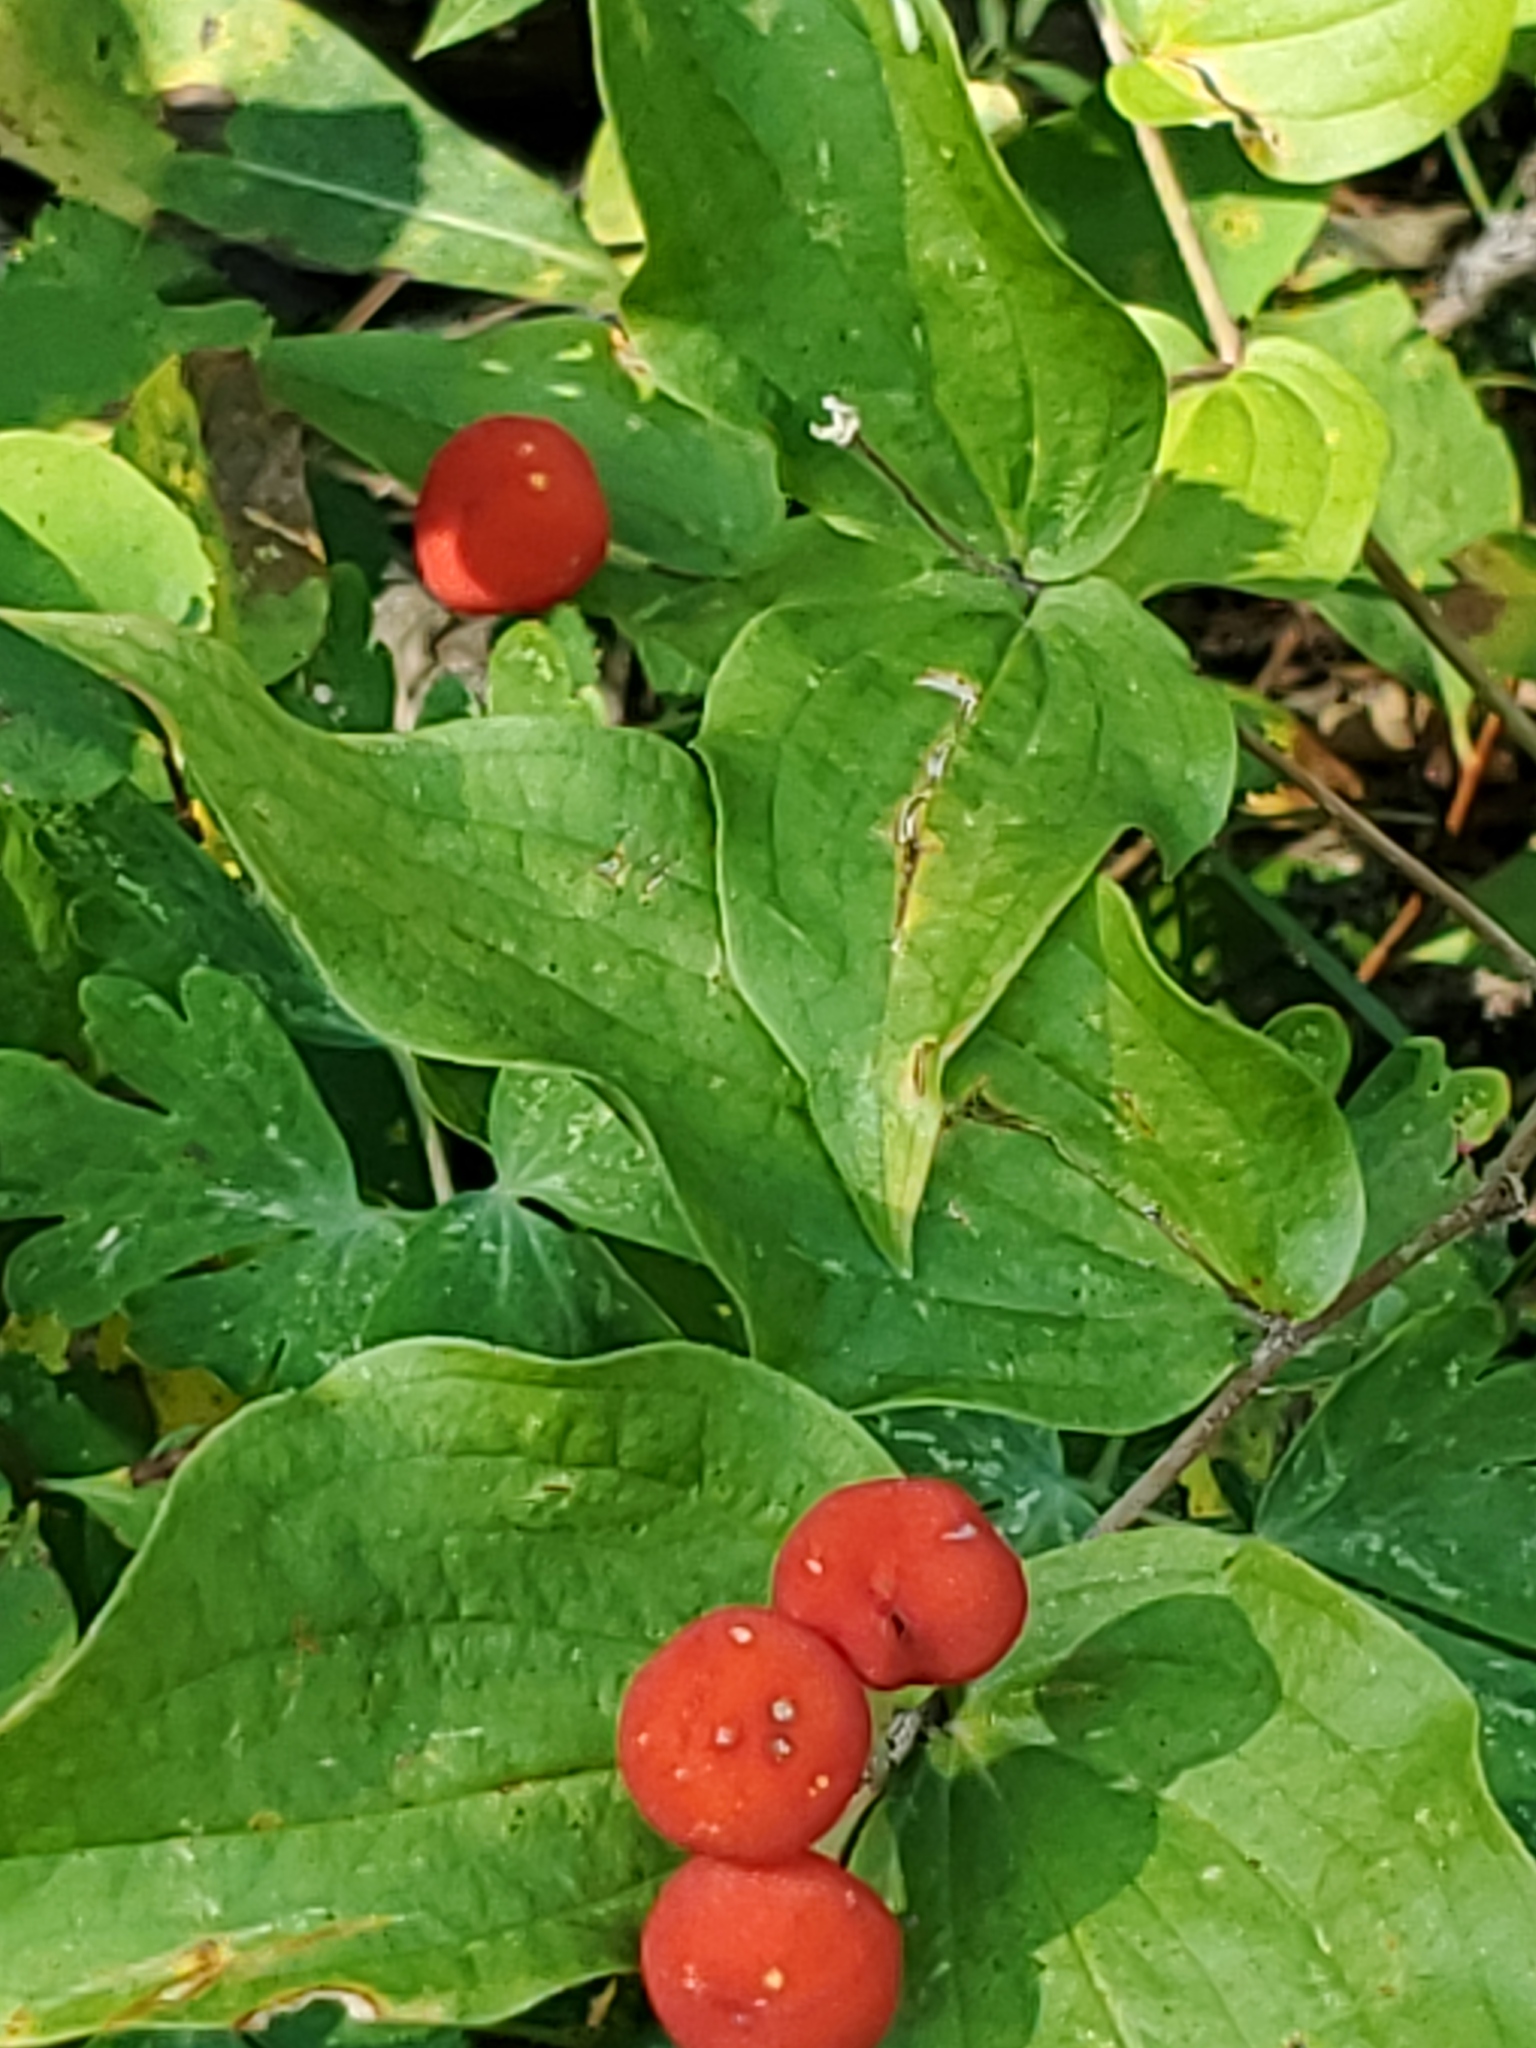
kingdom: Plantae
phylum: Tracheophyta
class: Liliopsida
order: Liliales
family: Liliaceae
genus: Prosartes
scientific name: Prosartes trachycarpa
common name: Rough-fruit fairy-bells
